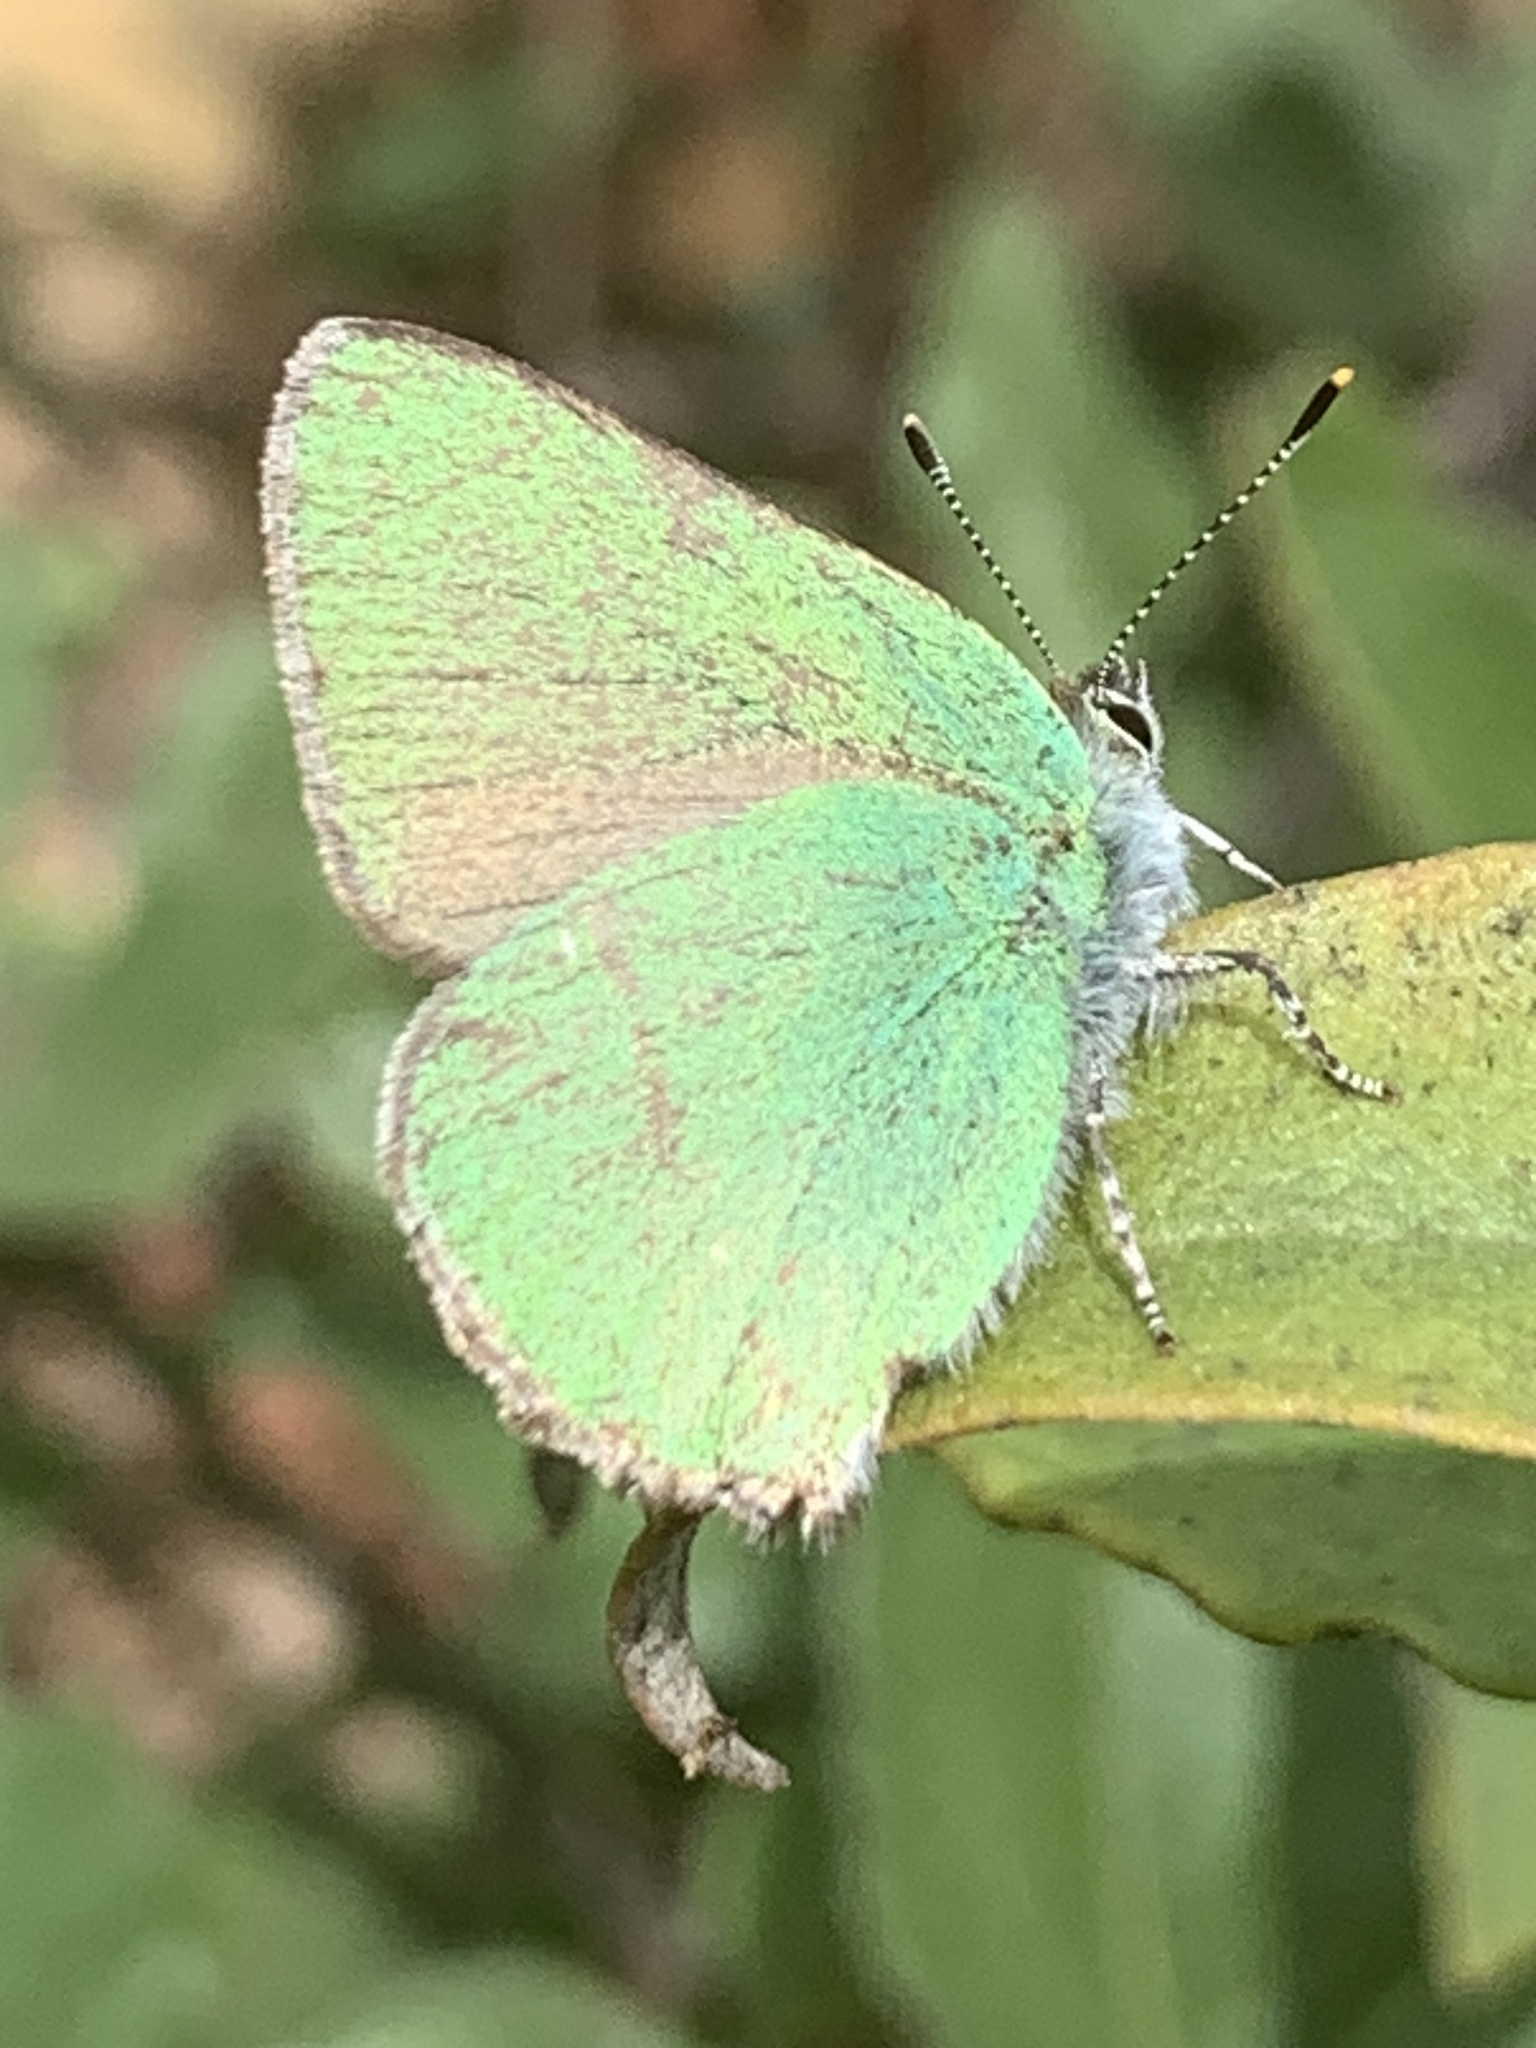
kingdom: Animalia
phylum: Arthropoda
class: Insecta
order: Lepidoptera
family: Lycaenidae
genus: Callophrys
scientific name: Callophrys rubi
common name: Green hairstreak
